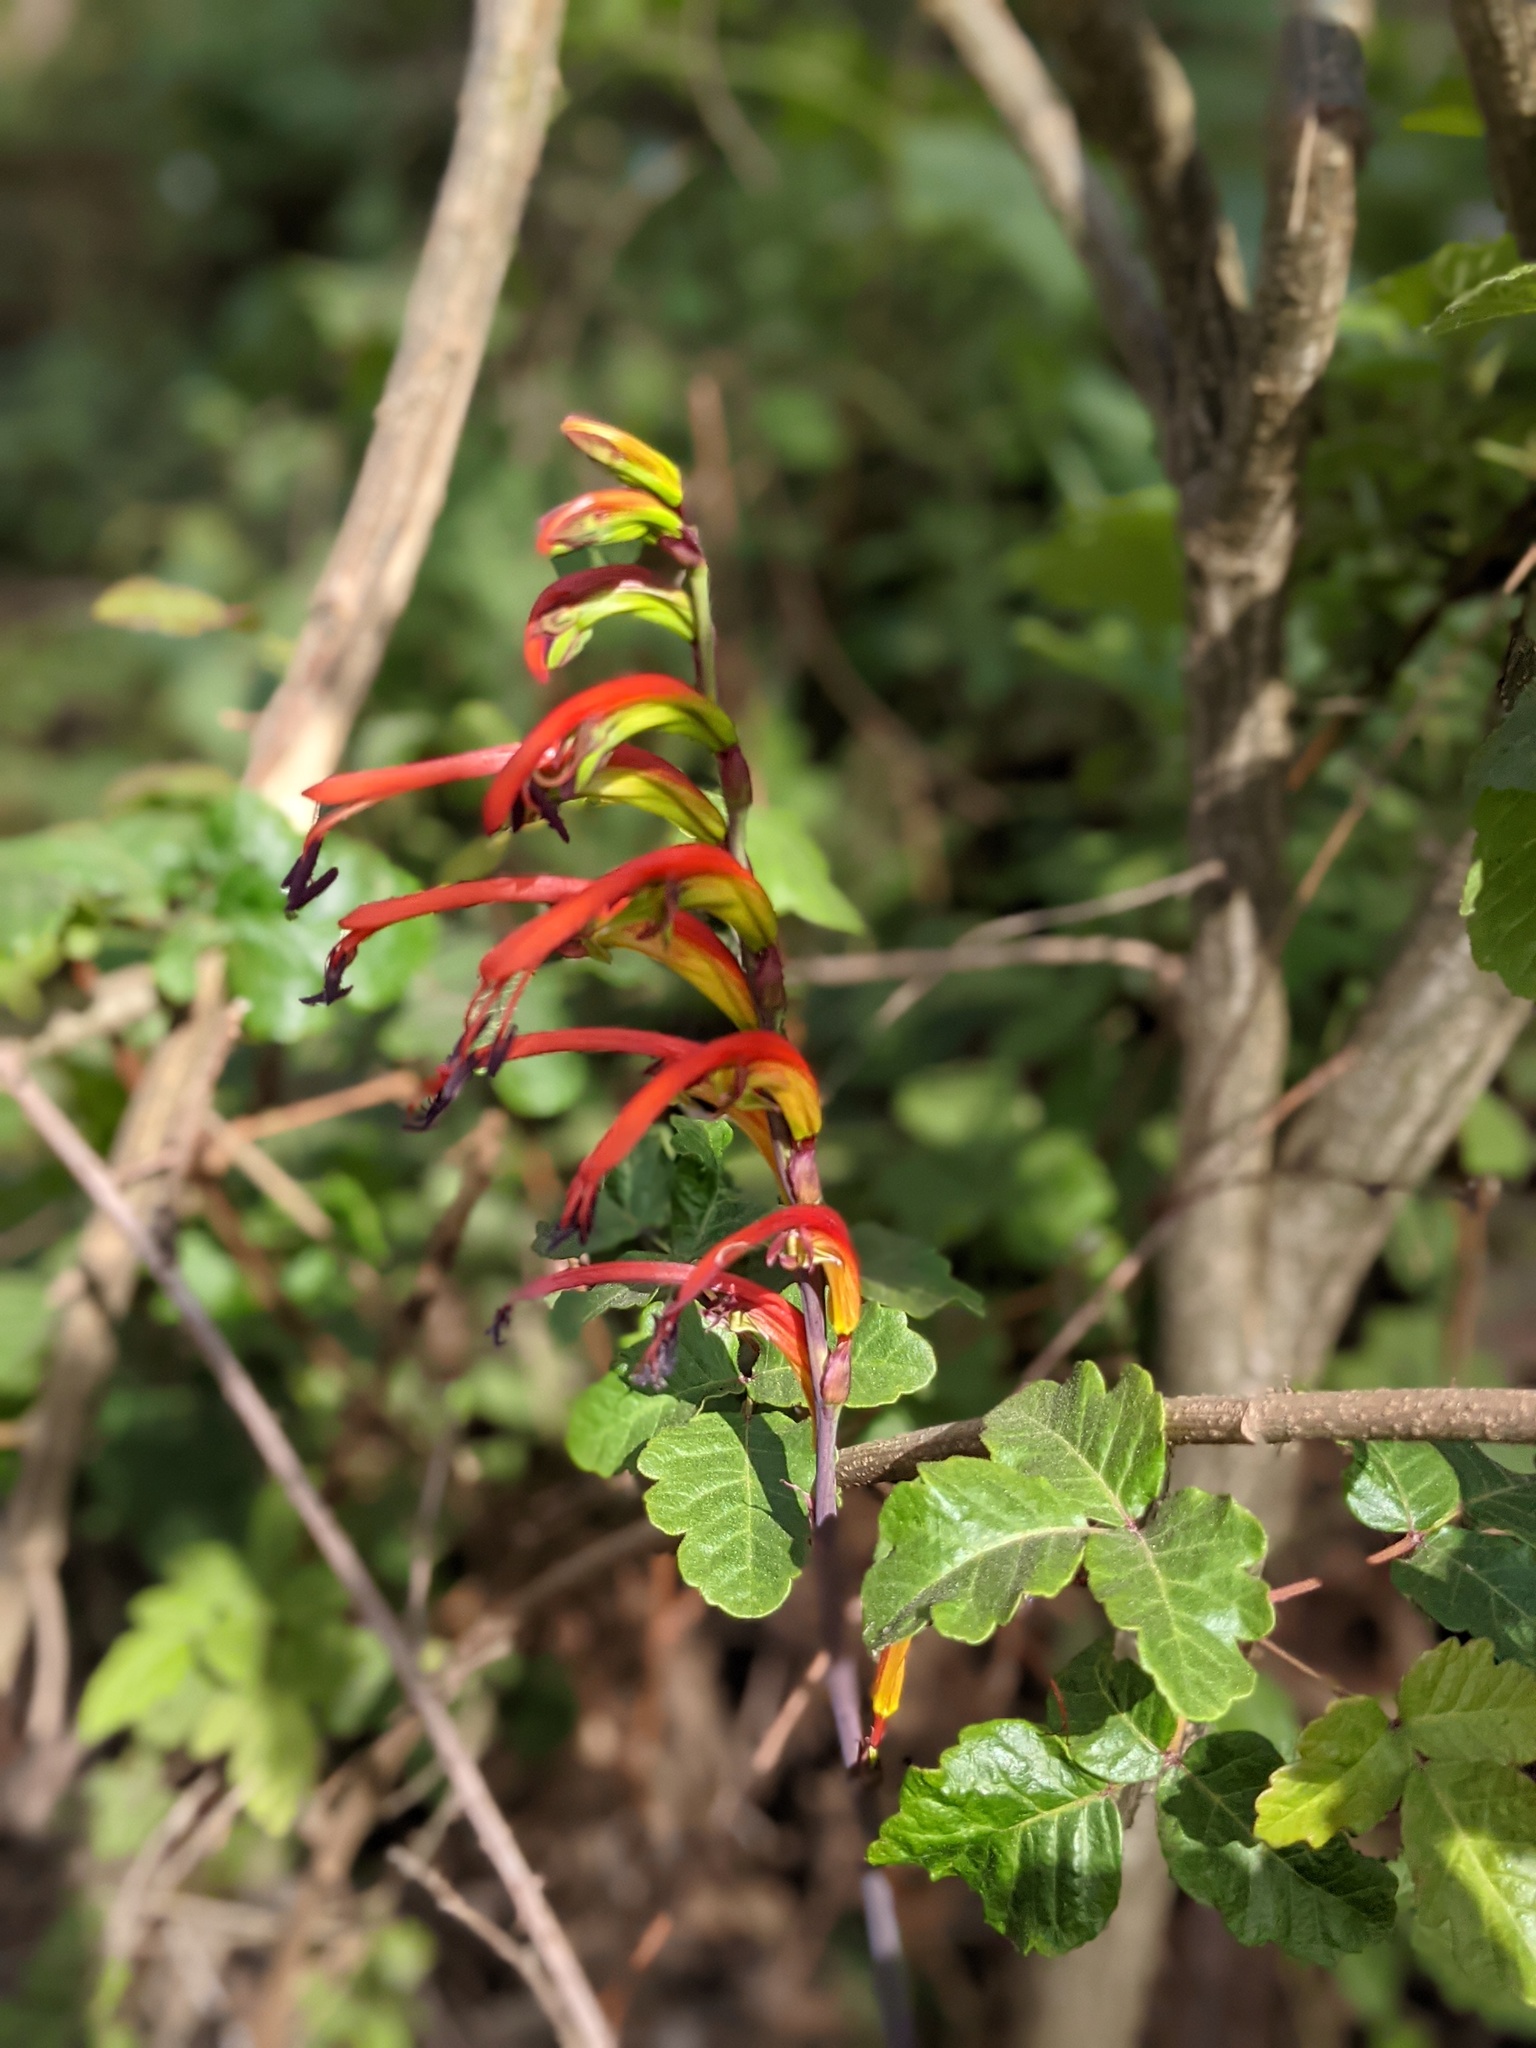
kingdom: Plantae
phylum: Tracheophyta
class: Liliopsida
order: Asparagales
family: Iridaceae
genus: Chasmanthe
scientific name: Chasmanthe bicolor
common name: Bicolor cobra lily
